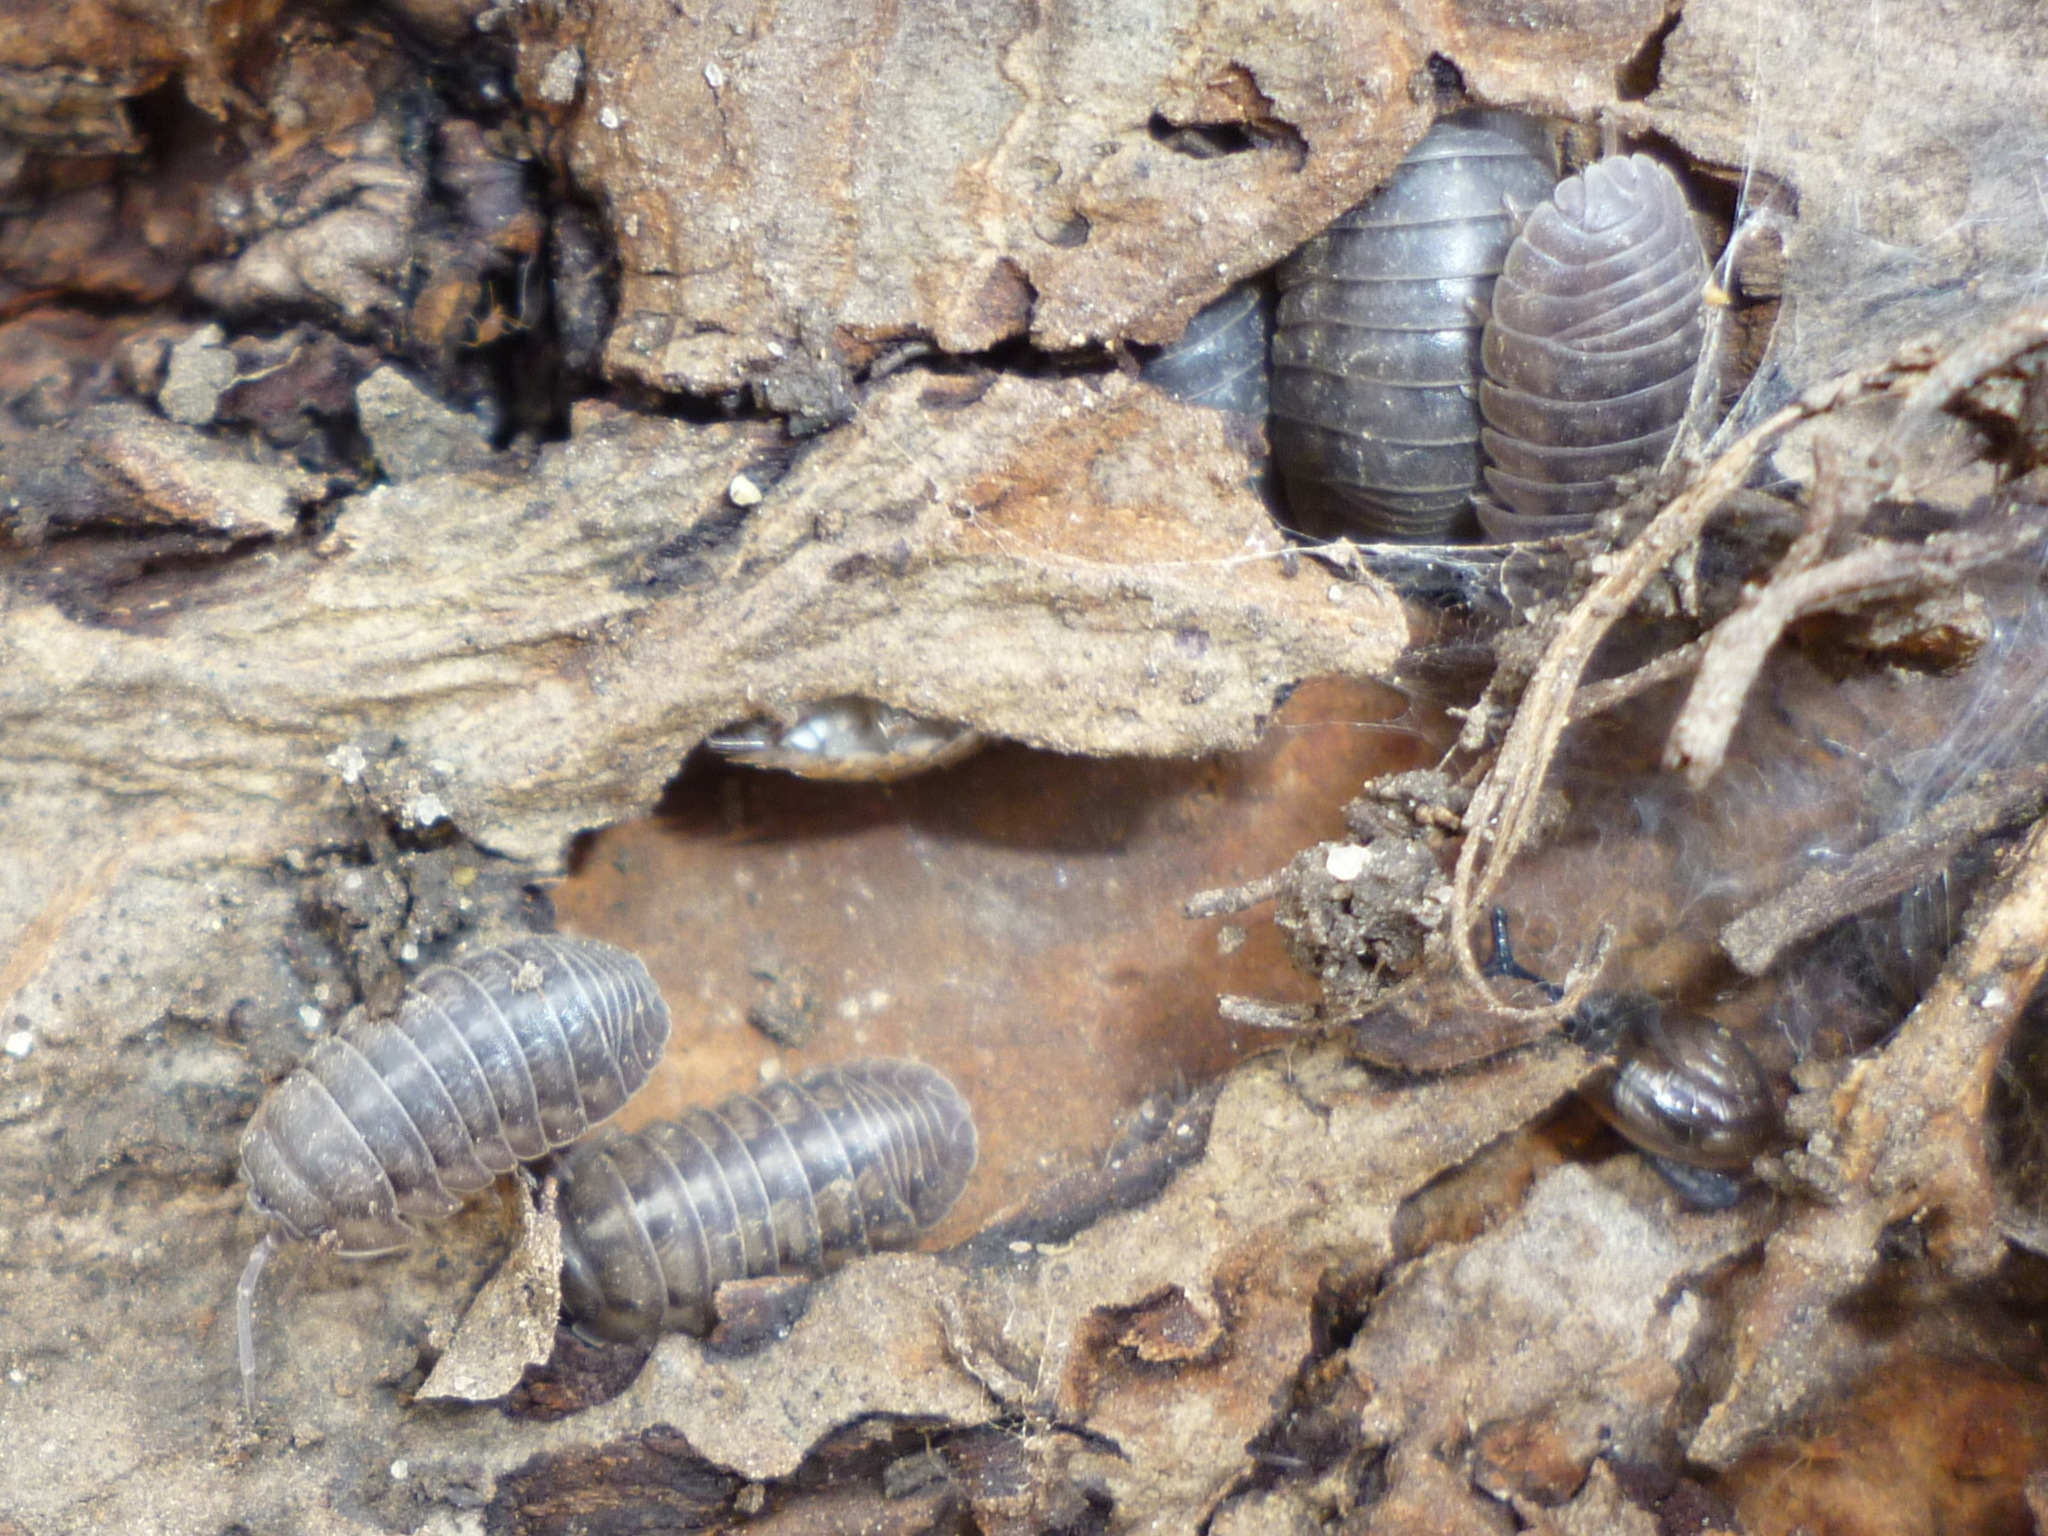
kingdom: Animalia
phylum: Arthropoda
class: Malacostraca
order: Isopoda
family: Armadillidiidae
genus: Armadillidium
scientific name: Armadillidium nasatum
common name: Isopod
